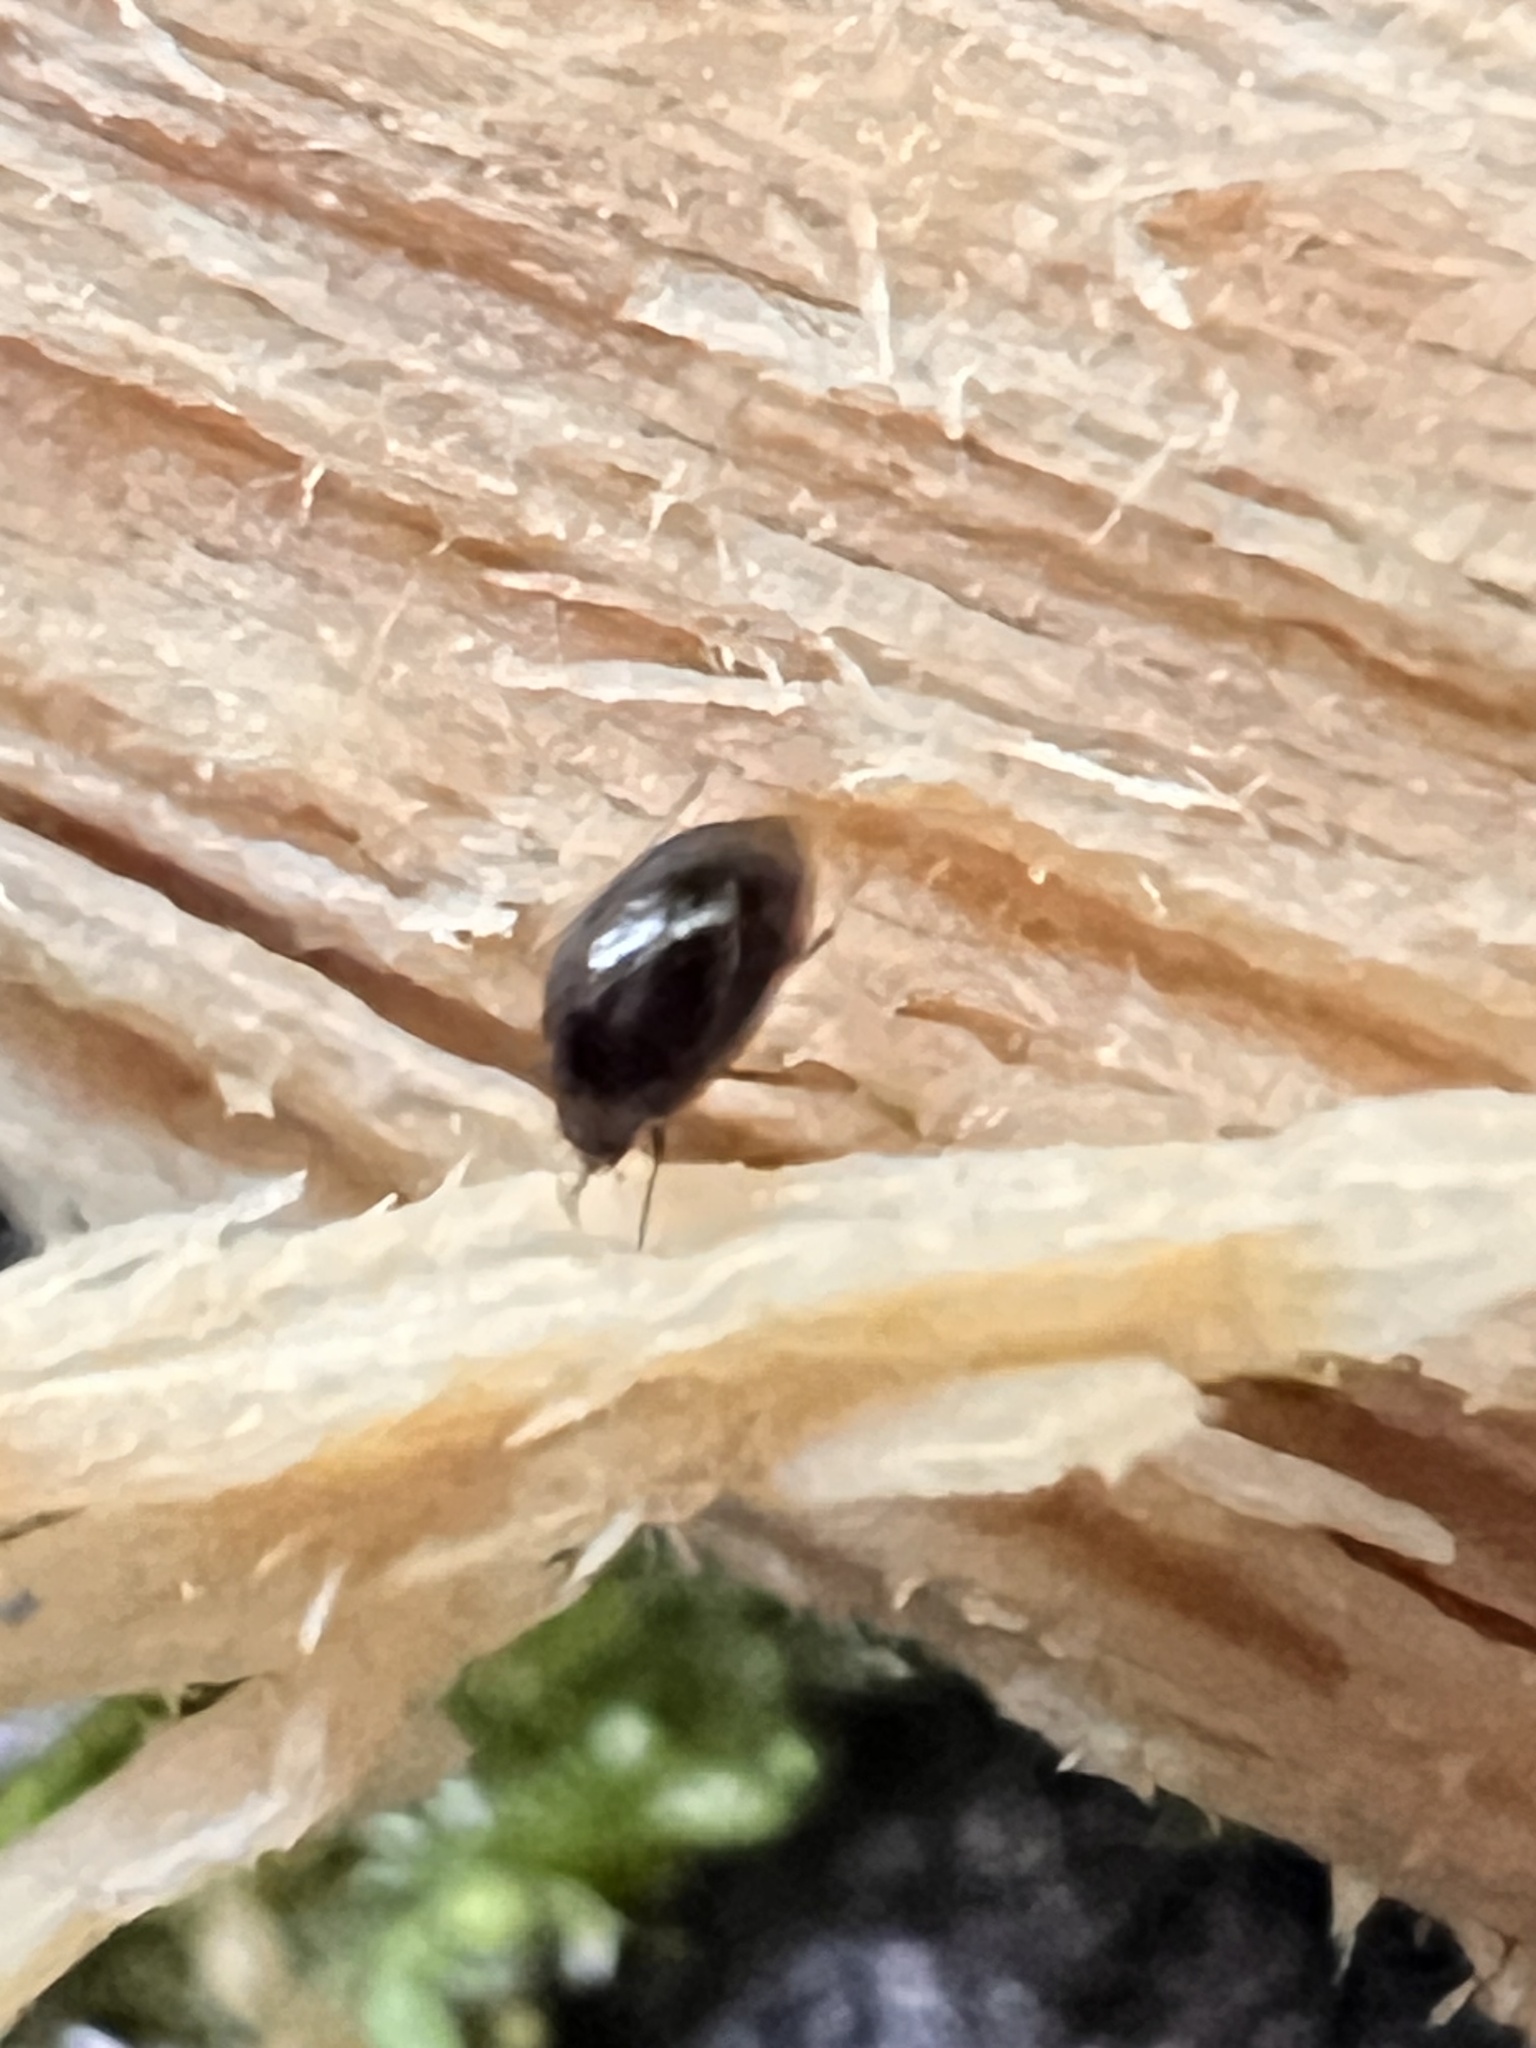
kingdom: Animalia
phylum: Arthropoda
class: Insecta
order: Coleoptera
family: Staphylinidae
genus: Brachynopus
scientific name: Brachynopus scutellaris
